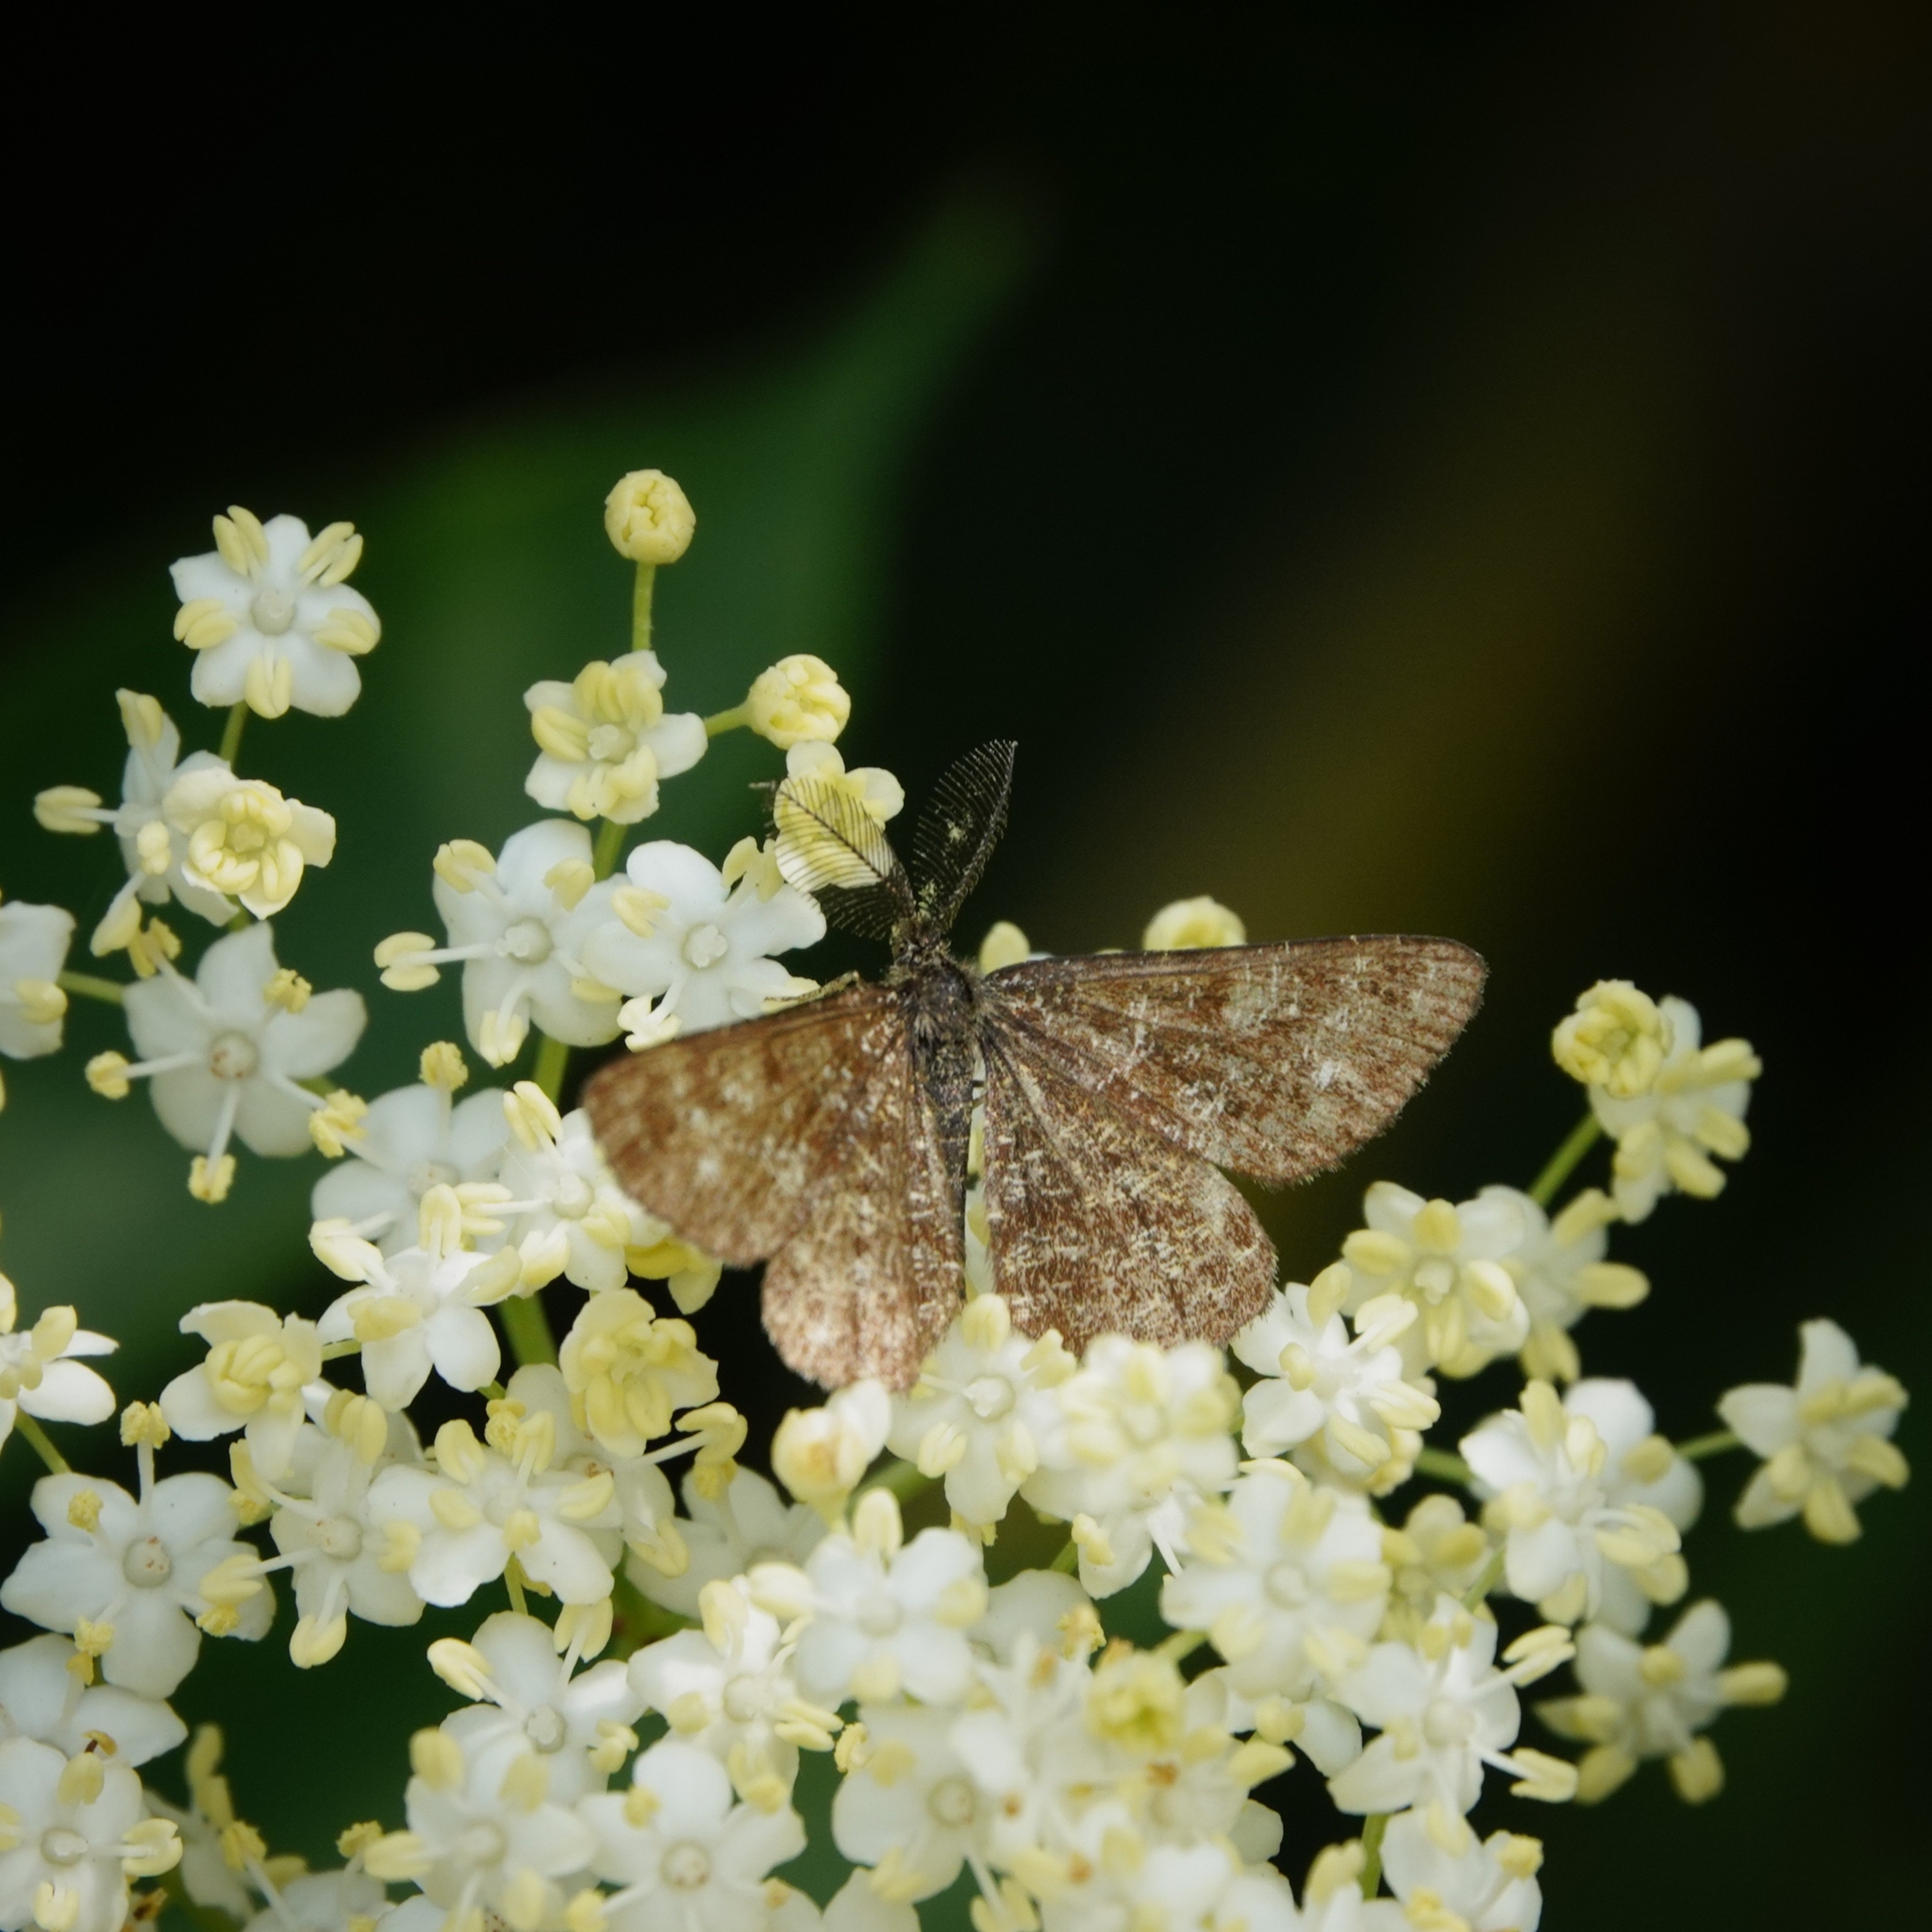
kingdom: Animalia
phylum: Arthropoda
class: Insecta
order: Lepidoptera
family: Geometridae
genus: Ematurga
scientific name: Ematurga atomaria
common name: Common heath
